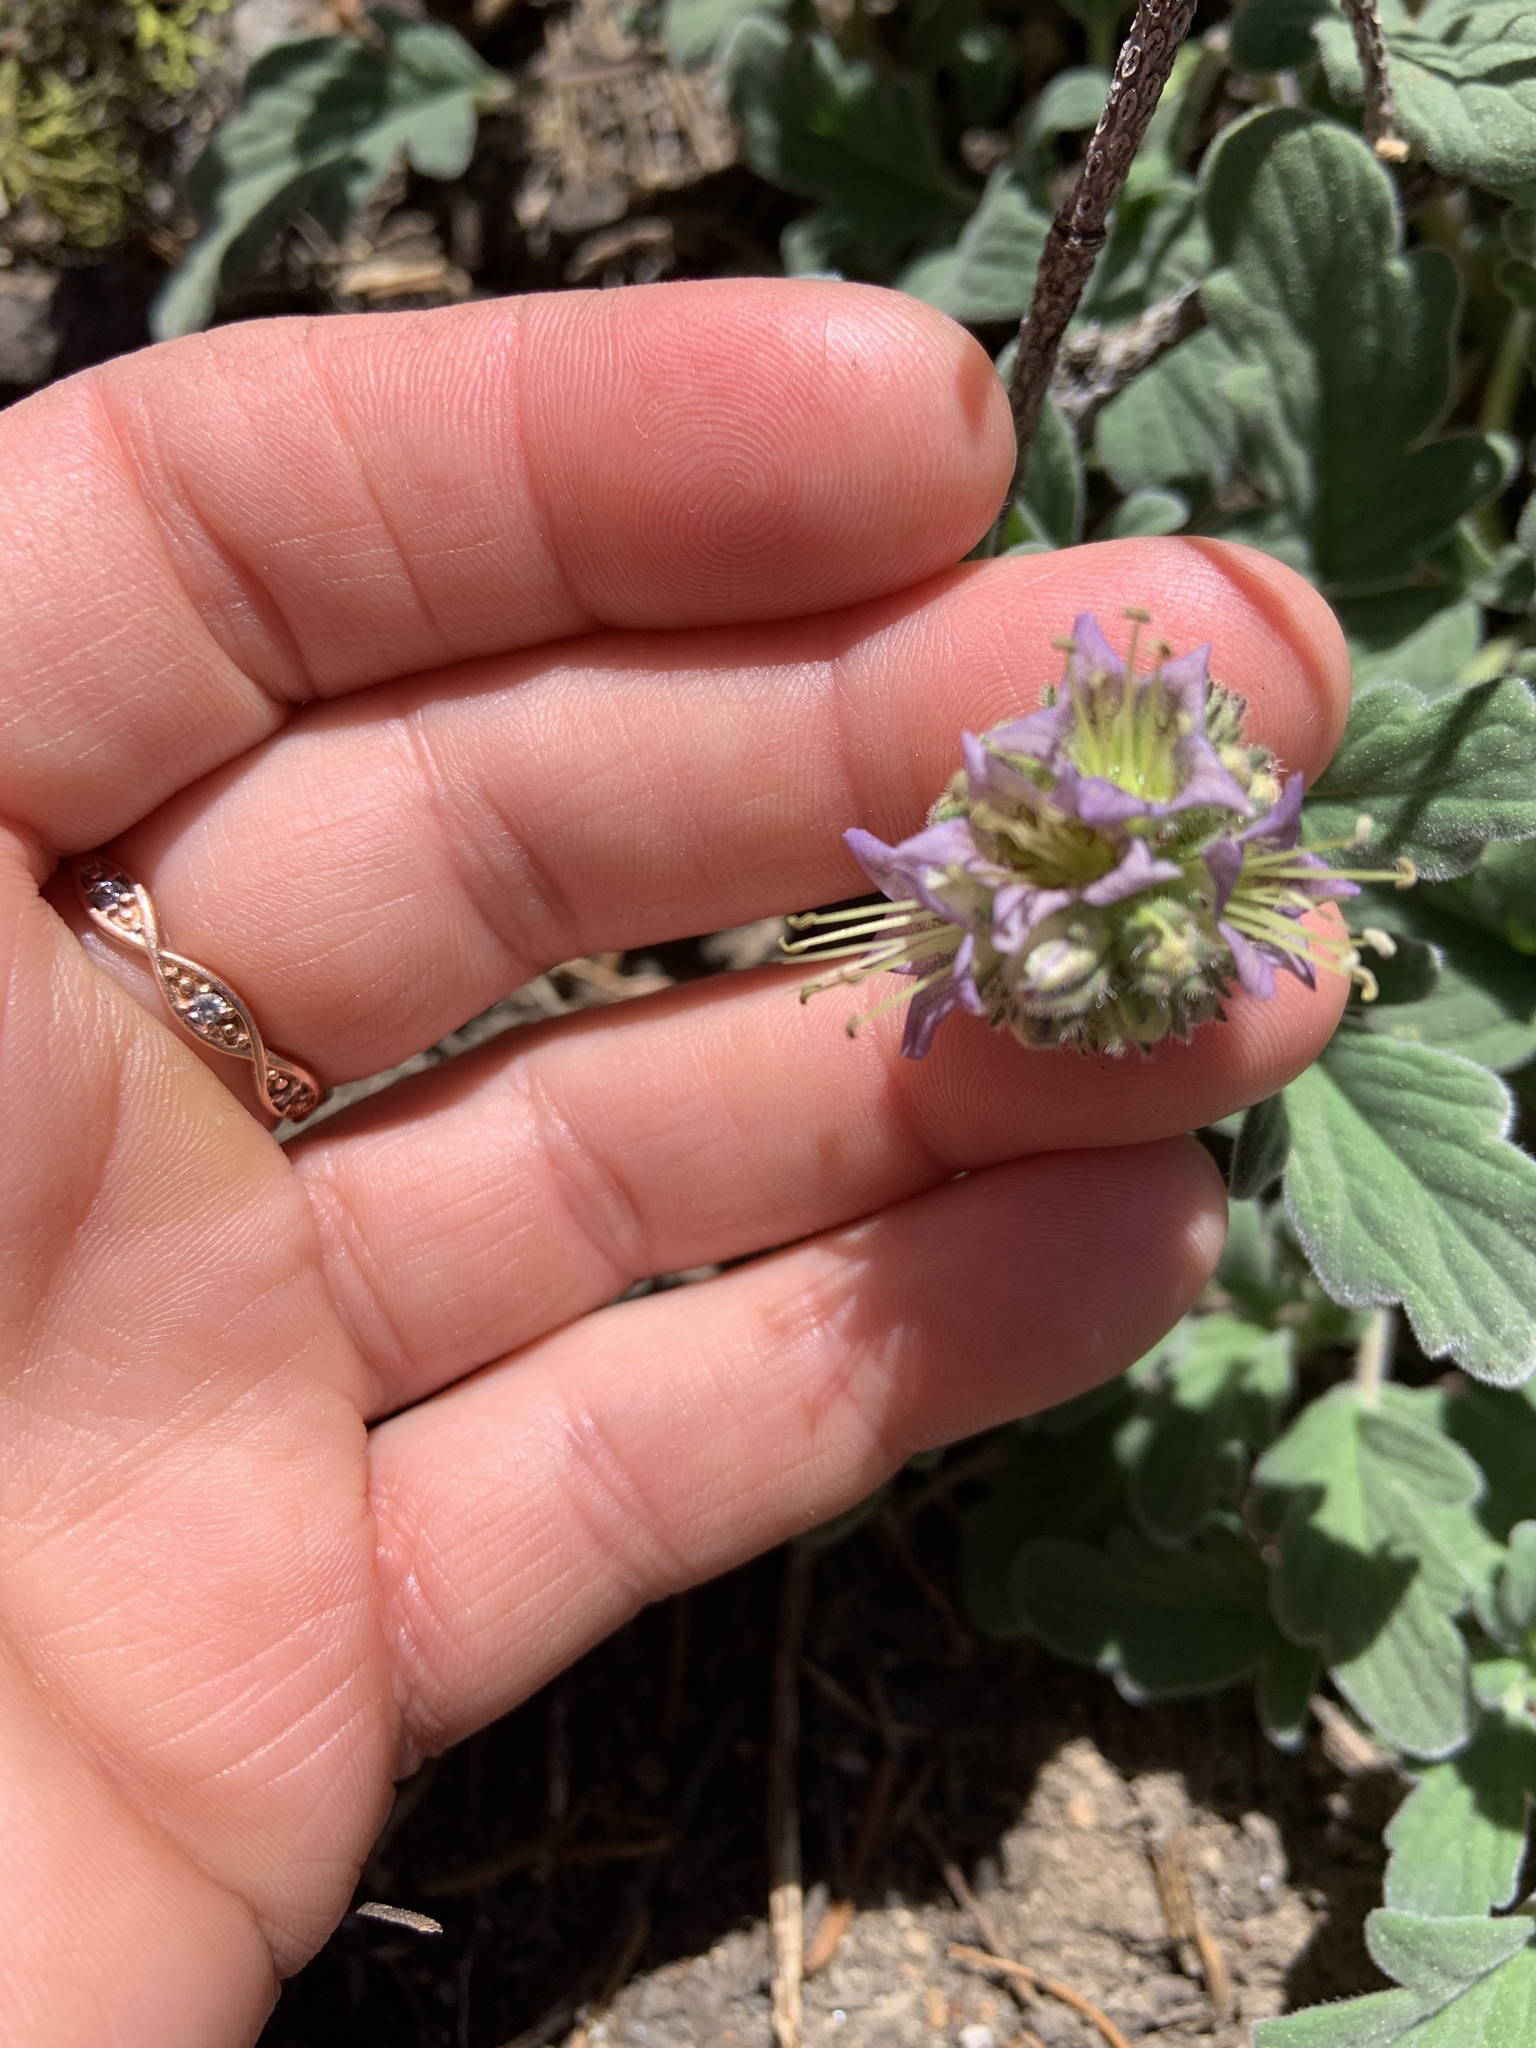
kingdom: Plantae
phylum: Tracheophyta
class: Magnoliopsida
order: Boraginales
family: Hydrophyllaceae
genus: Phacelia
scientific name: Phacelia hydrophylloides
